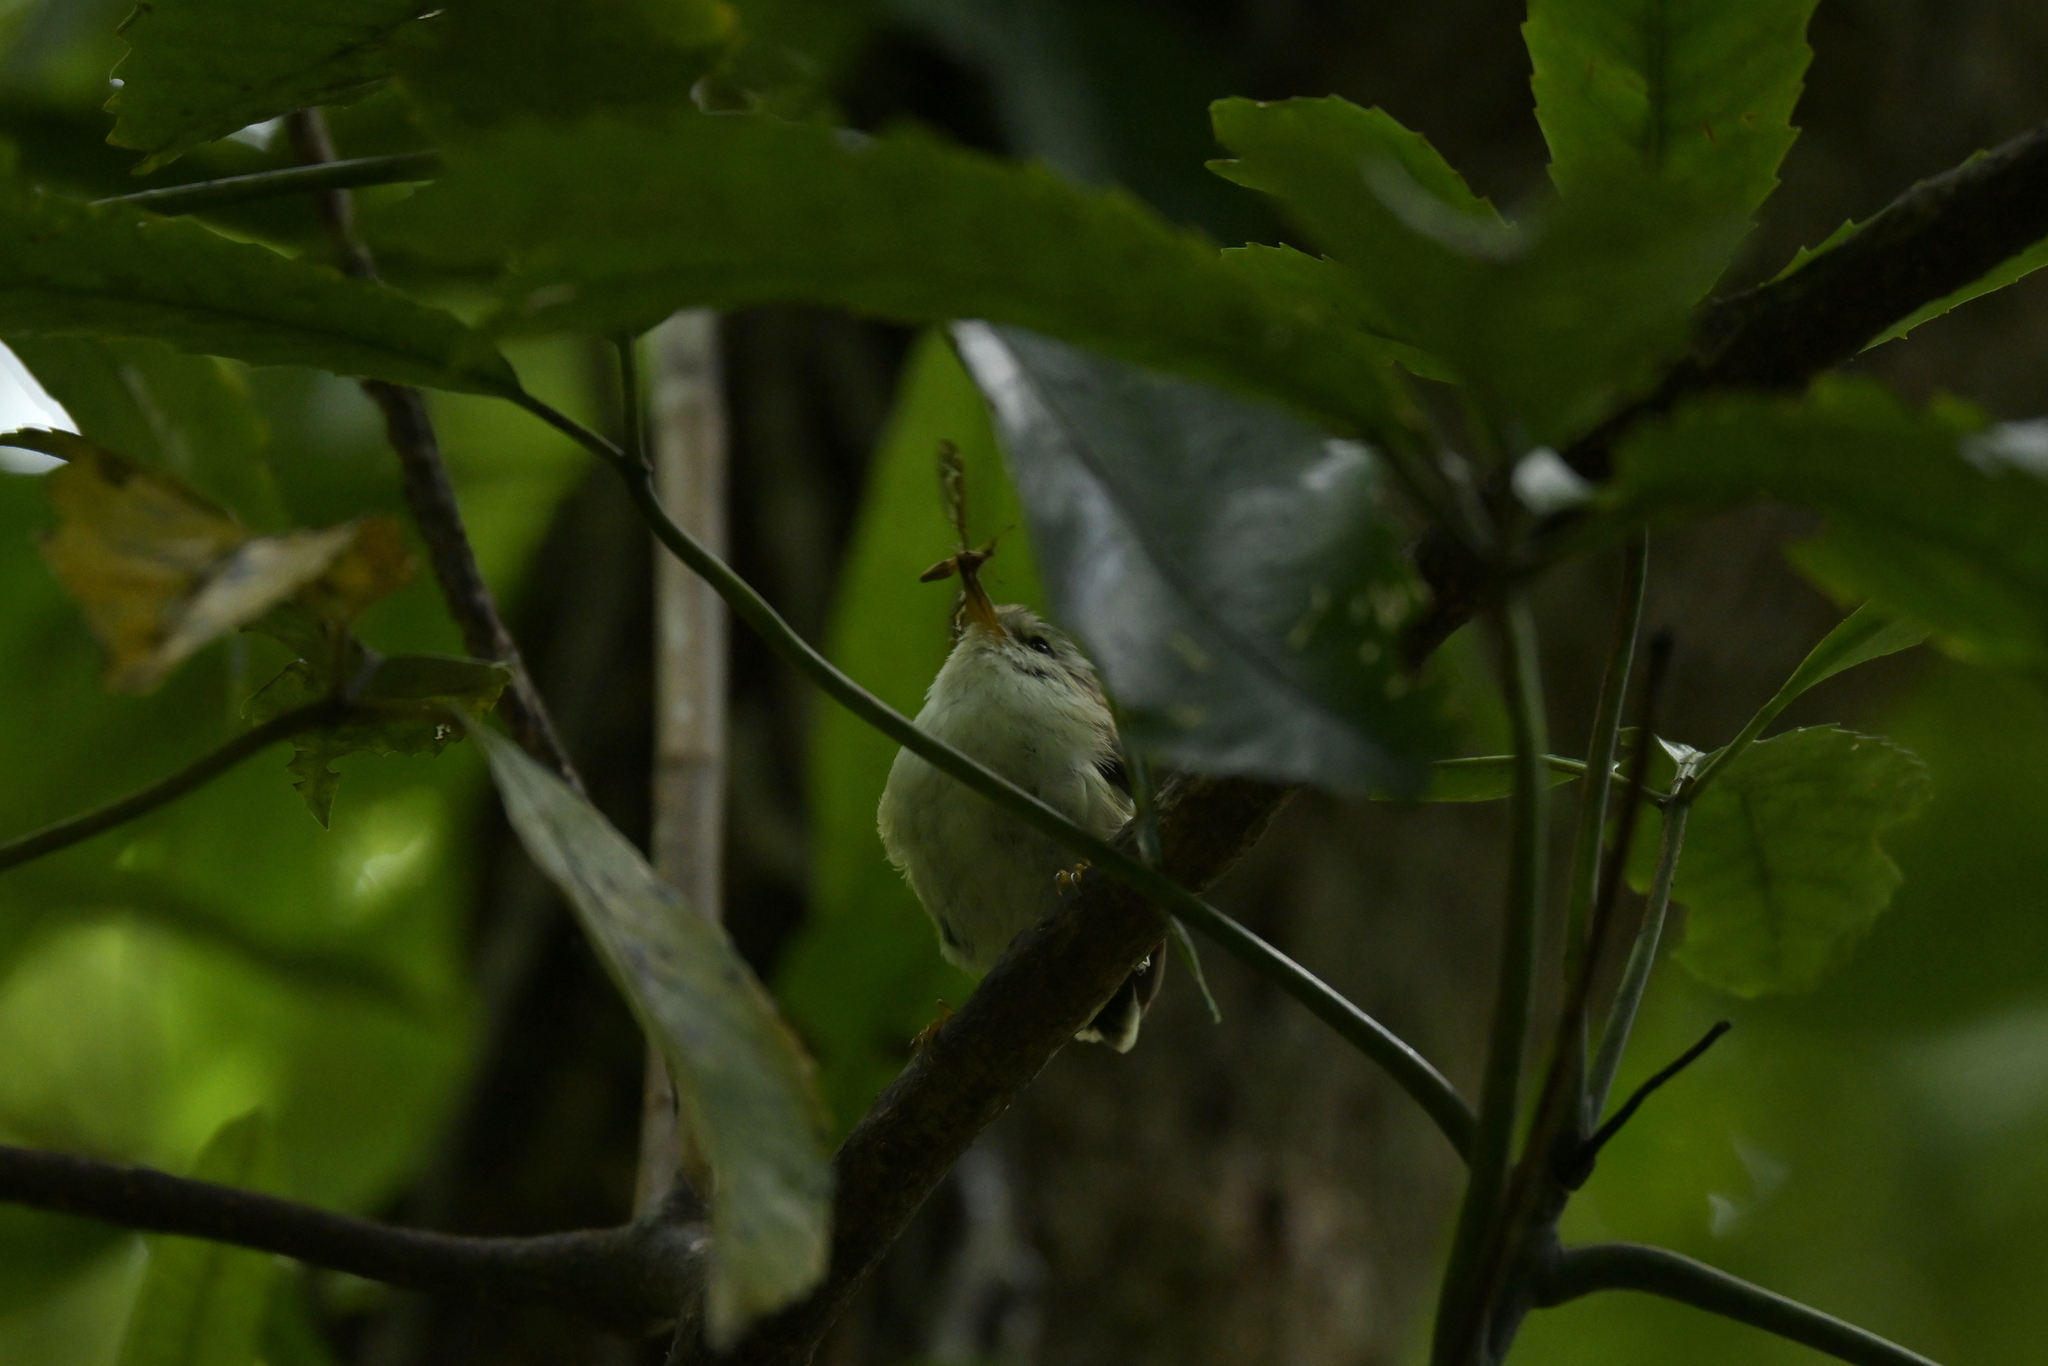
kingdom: Animalia
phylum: Chordata
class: Aves
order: Passeriformes
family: Acanthisittidae
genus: Acanthisitta
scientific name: Acanthisitta chloris
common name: Rifleman
